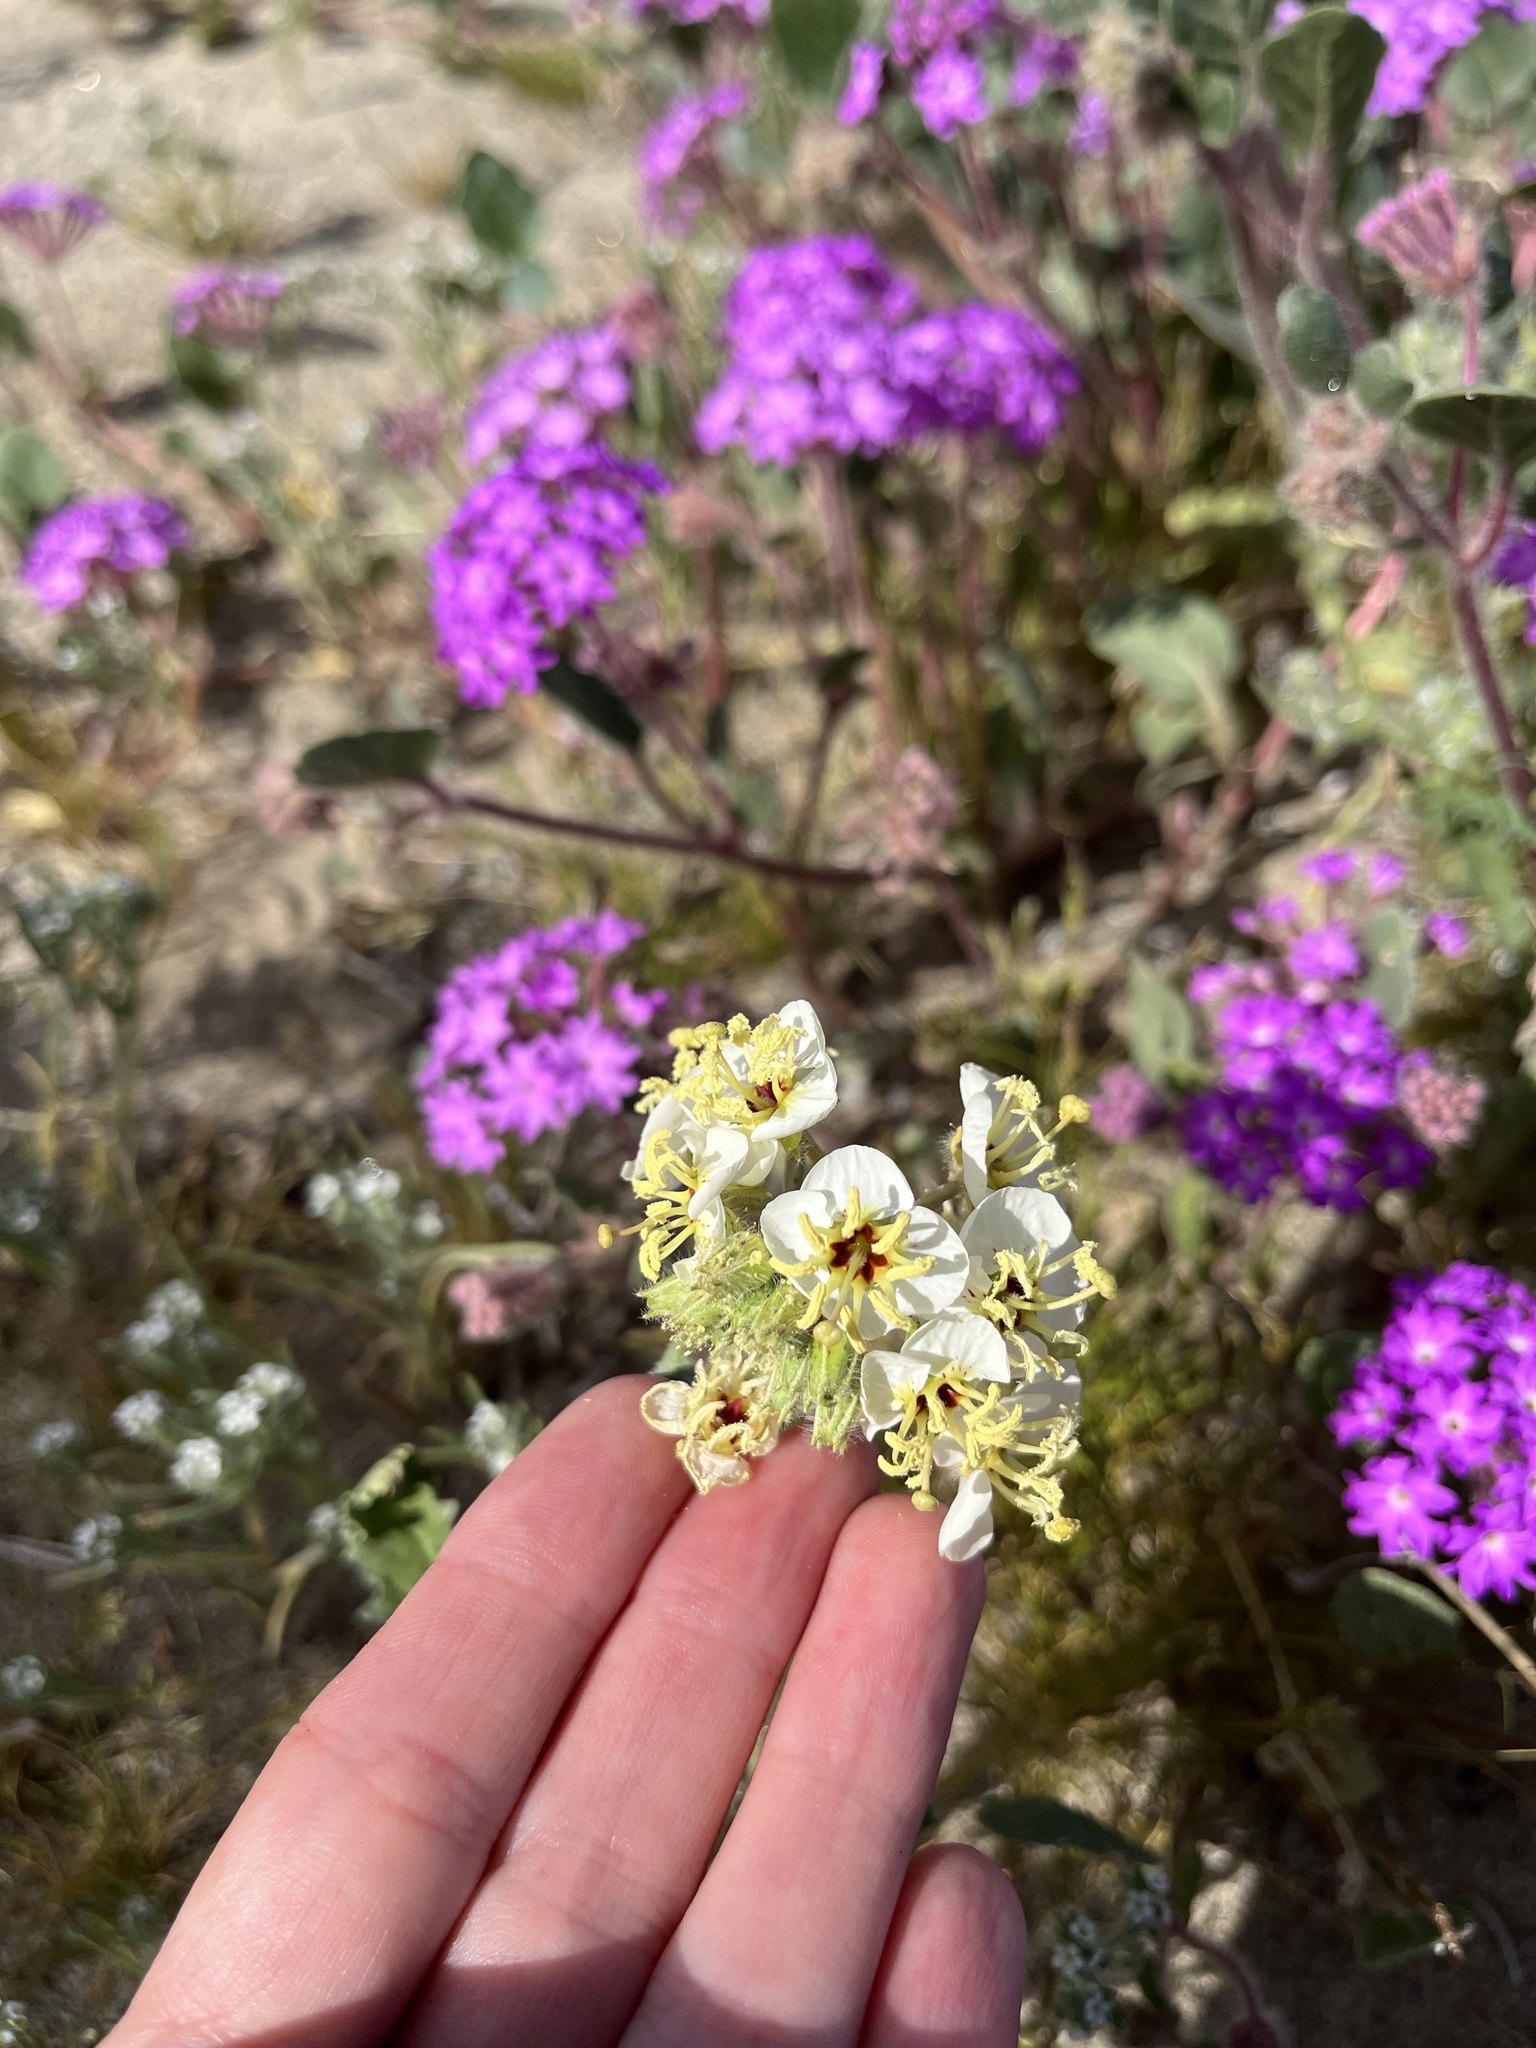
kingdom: Plantae
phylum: Tracheophyta
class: Magnoliopsida
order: Myrtales
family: Onagraceae
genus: Chylismia
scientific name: Chylismia claviformis
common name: Browneyes
